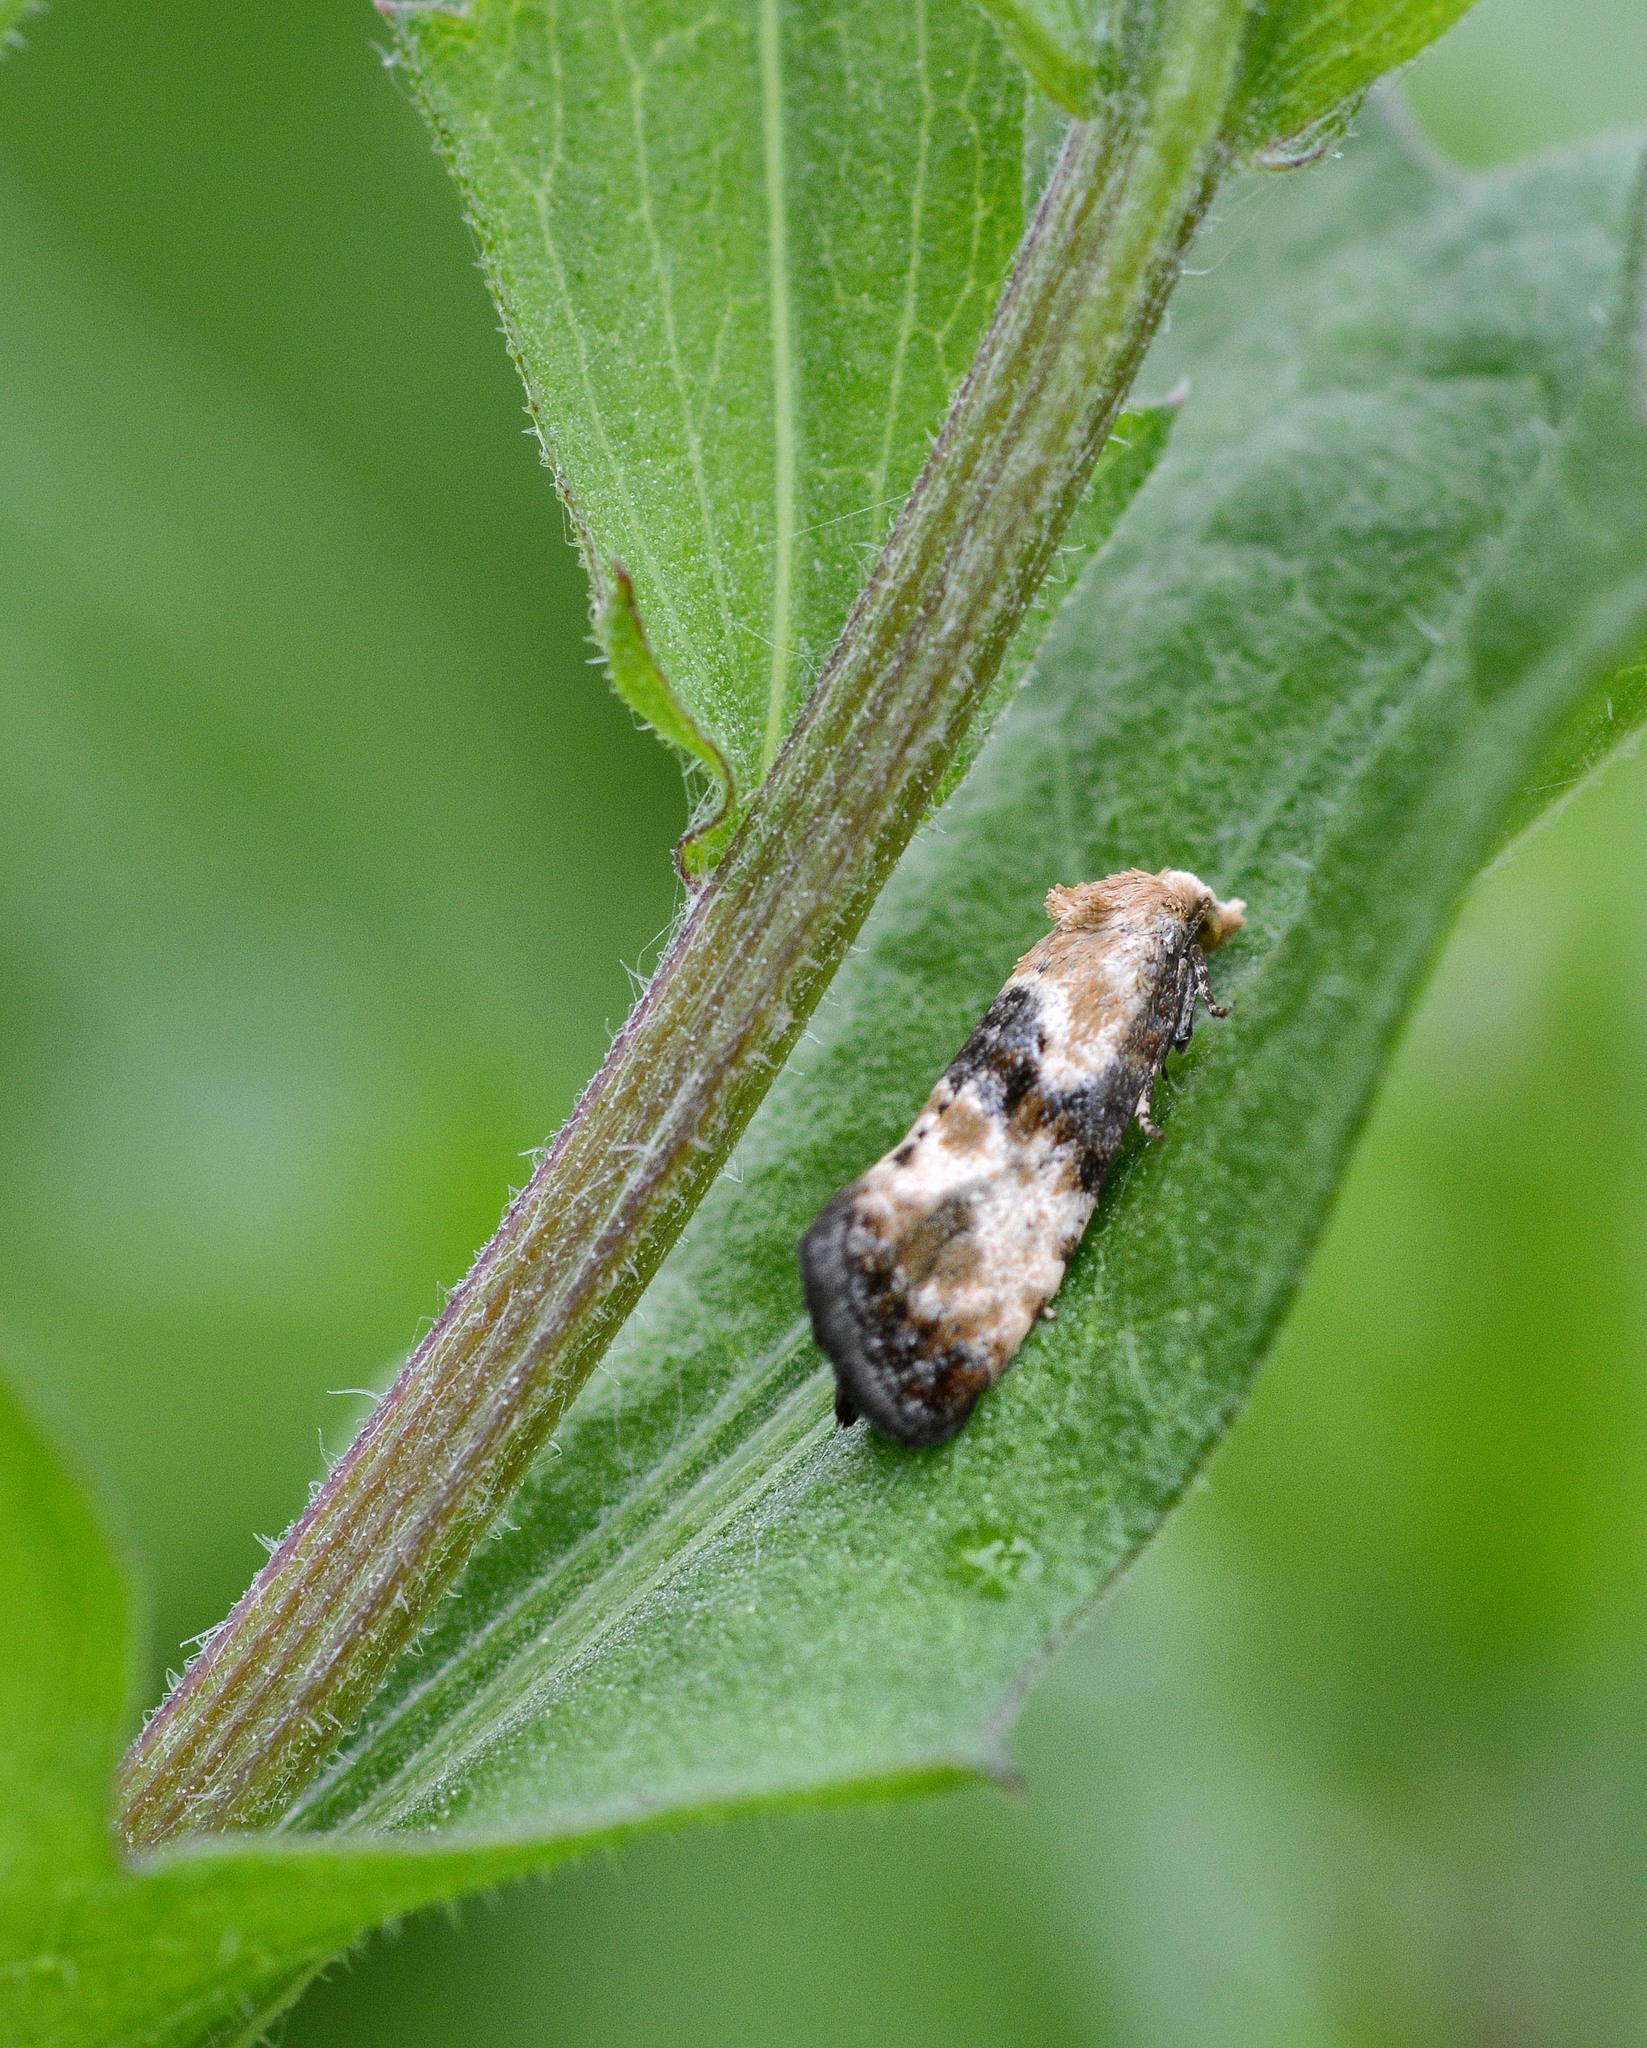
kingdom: Animalia
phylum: Arthropoda
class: Insecta
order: Lepidoptera
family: Tortricidae
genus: Eupoecilia
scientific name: Eupoecilia angustana
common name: Marbled conch
